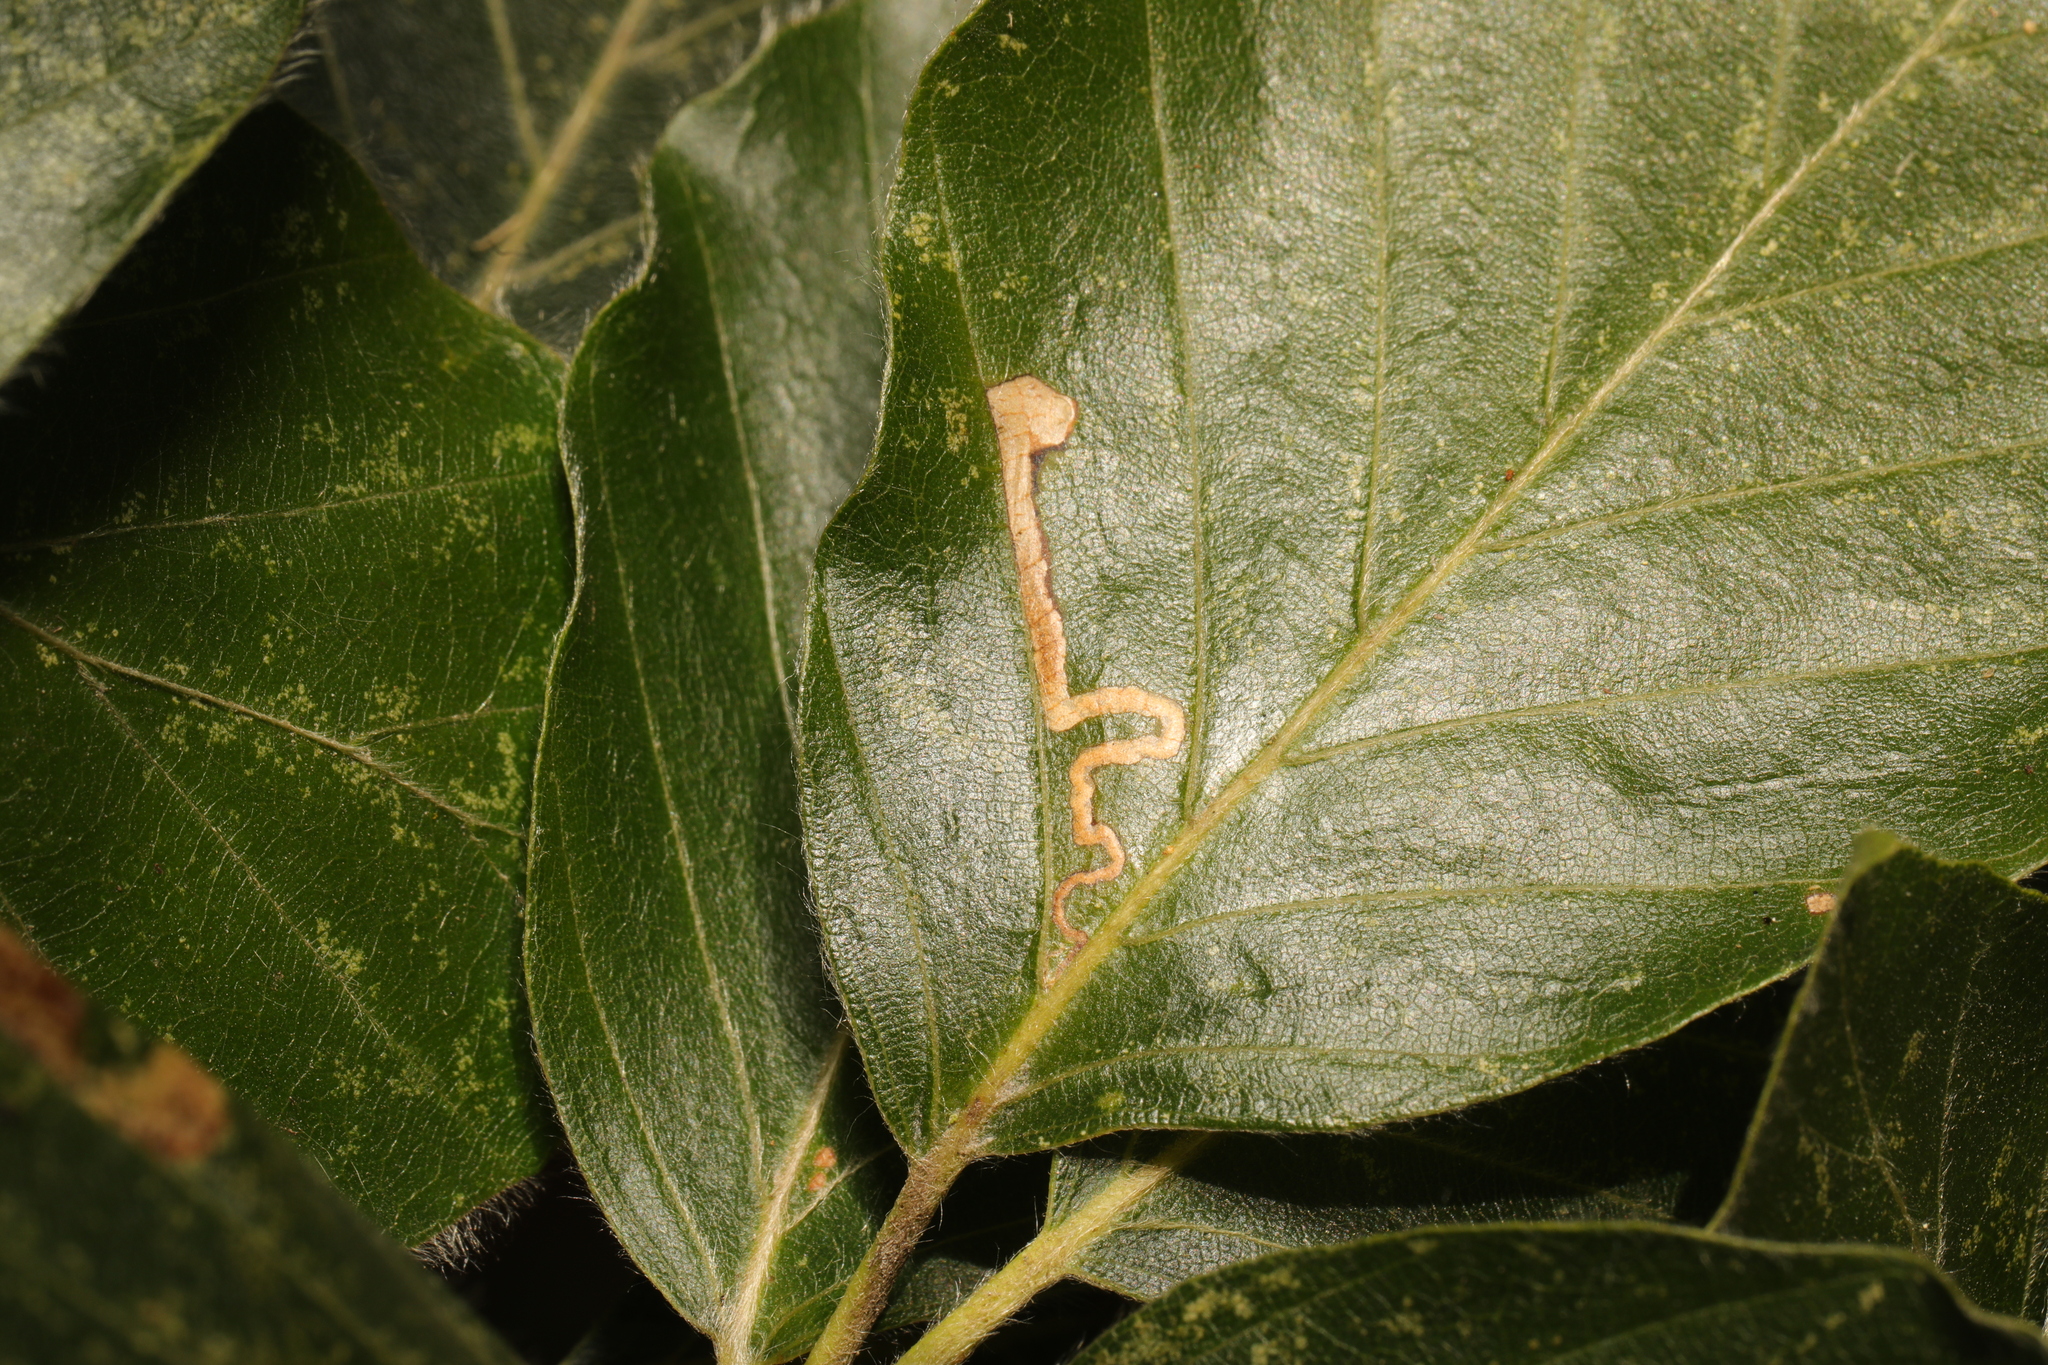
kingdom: Animalia
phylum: Arthropoda
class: Insecta
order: Lepidoptera
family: Nepticulidae
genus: Stigmella
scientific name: Stigmella tityrella
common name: Small beech pigmy
